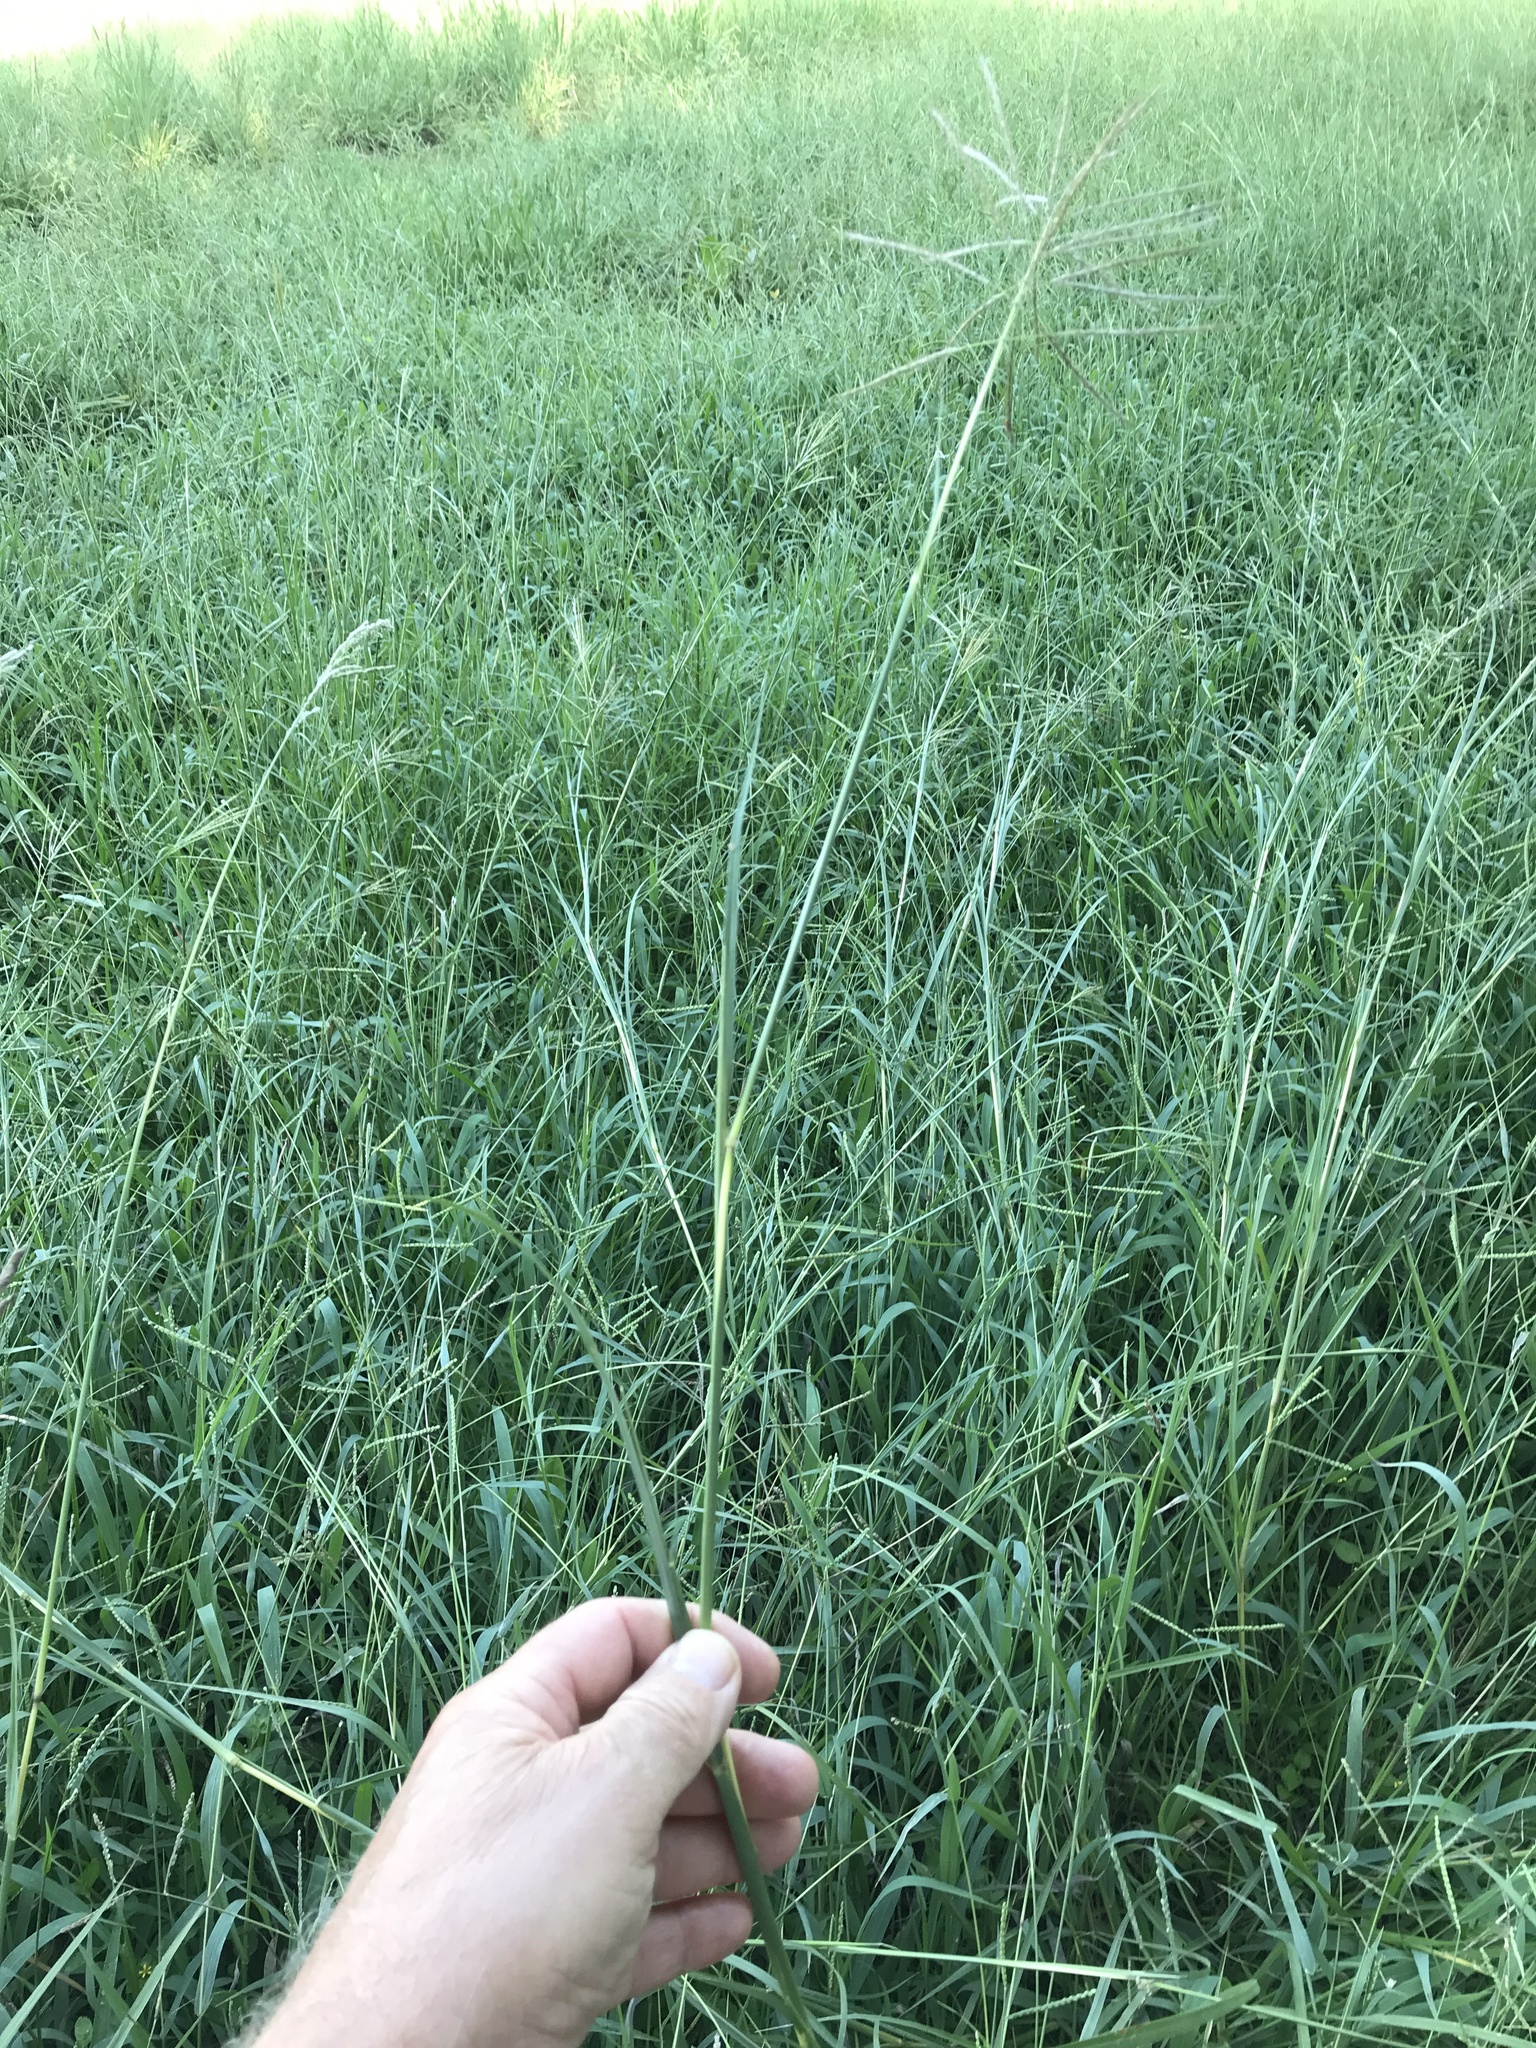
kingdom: Plantae
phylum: Tracheophyta
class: Liliopsida
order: Poales
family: Poaceae
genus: Bothriochloa
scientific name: Bothriochloa bladhii
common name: Caucasian bluestem
